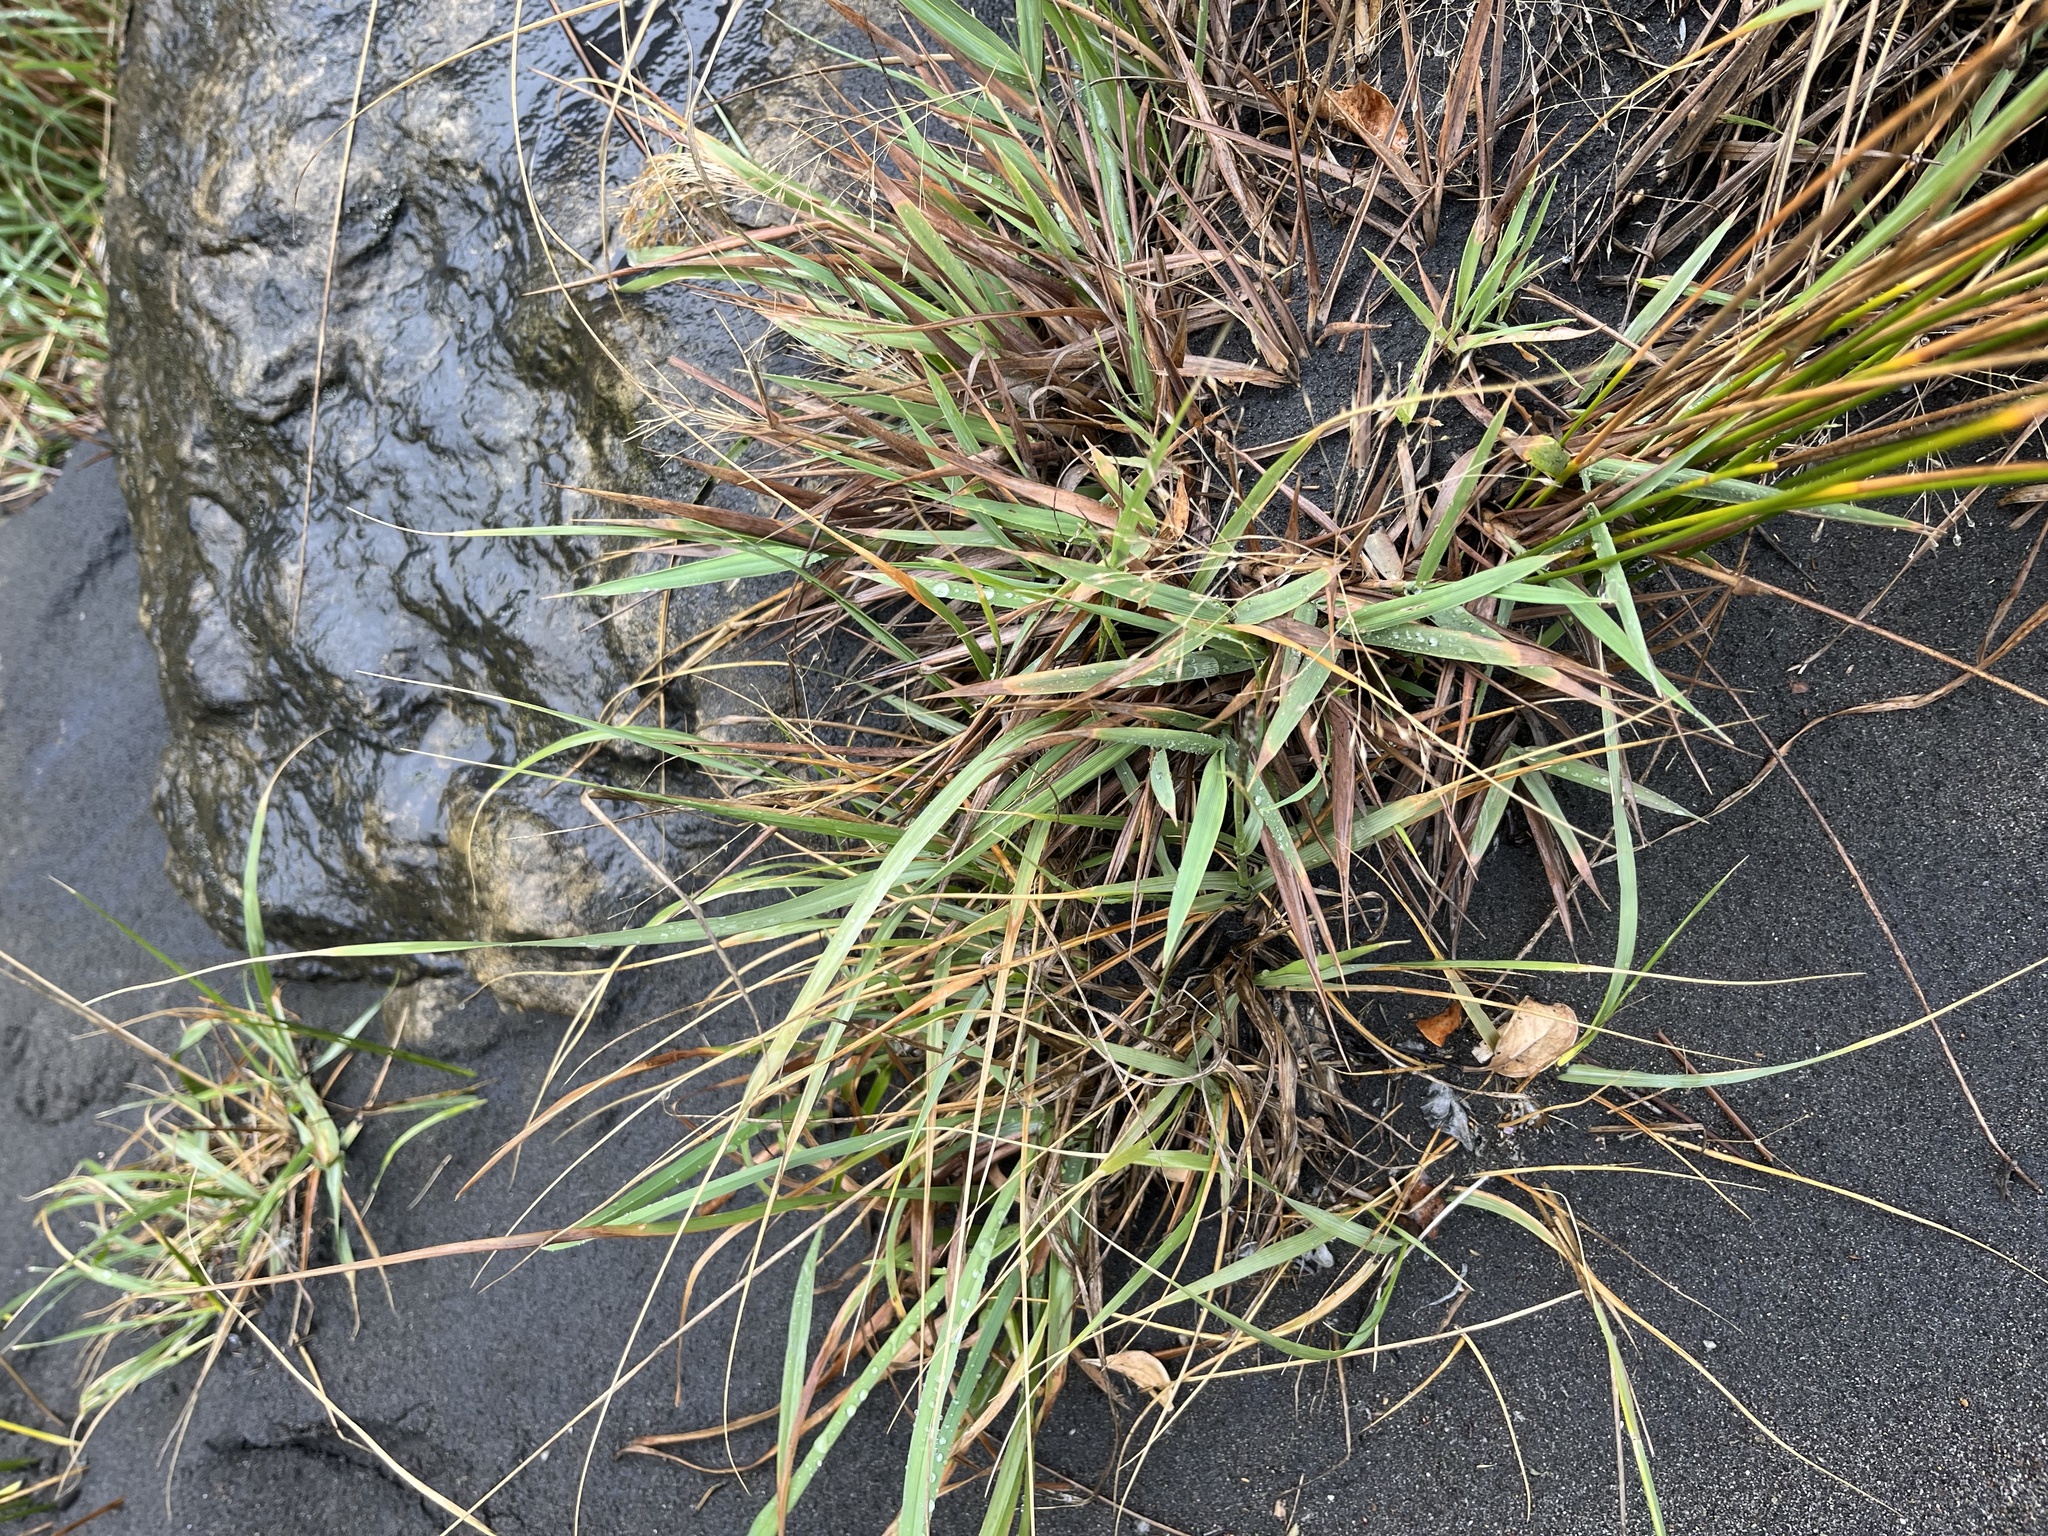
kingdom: Plantae
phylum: Tracheophyta
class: Liliopsida
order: Poales
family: Poaceae
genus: Lachnagrostis
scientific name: Lachnagrostis billardierei
